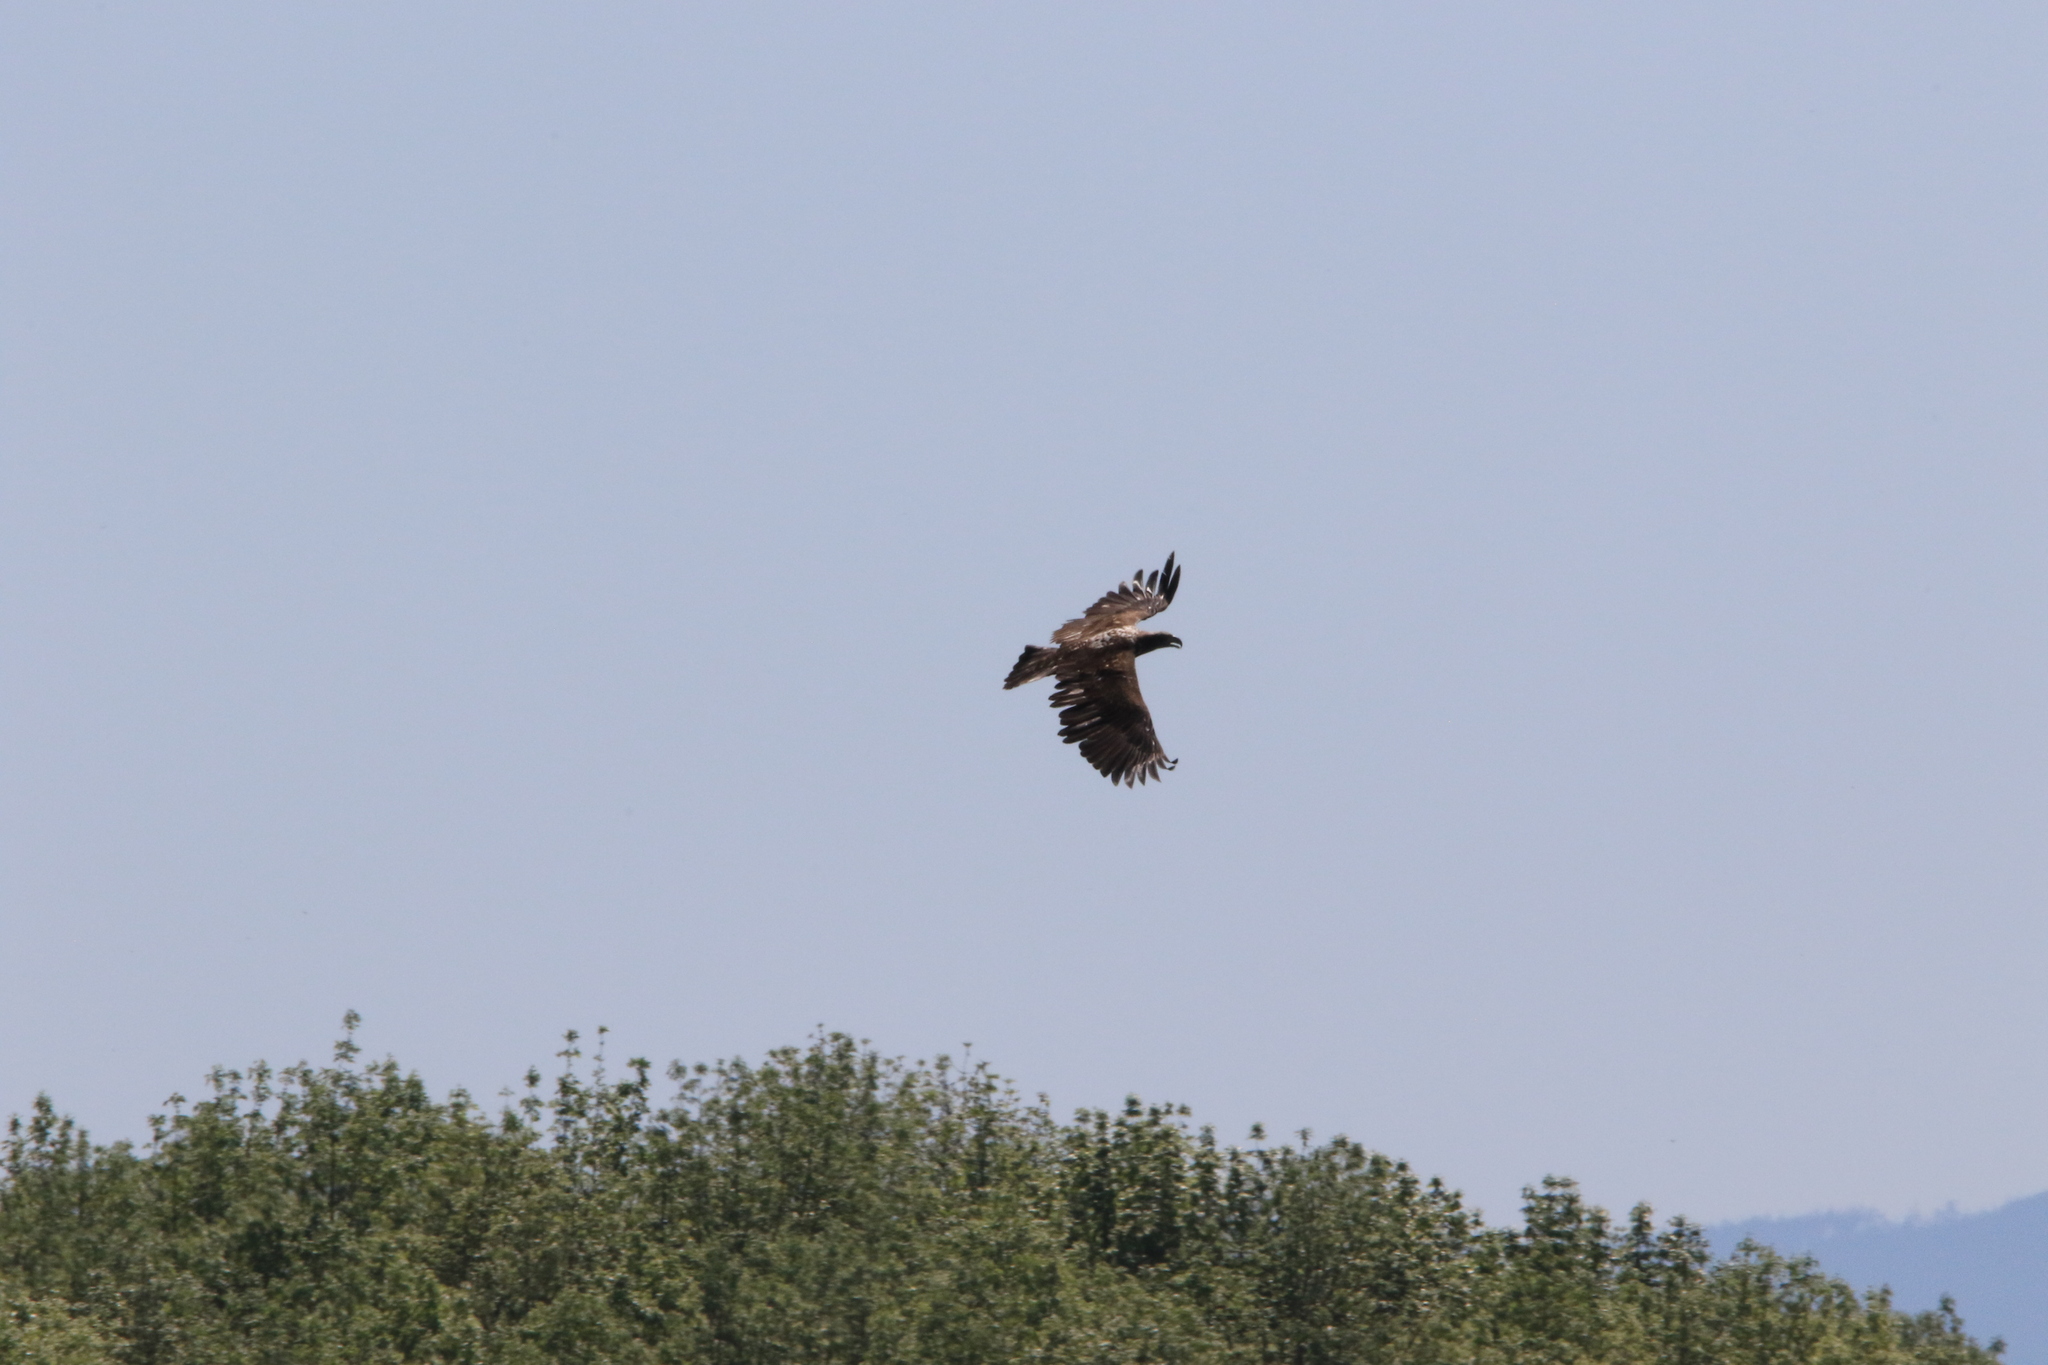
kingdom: Animalia
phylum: Chordata
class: Aves
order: Accipitriformes
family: Accipitridae
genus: Haliaeetus
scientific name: Haliaeetus leucocephalus
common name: Bald eagle
